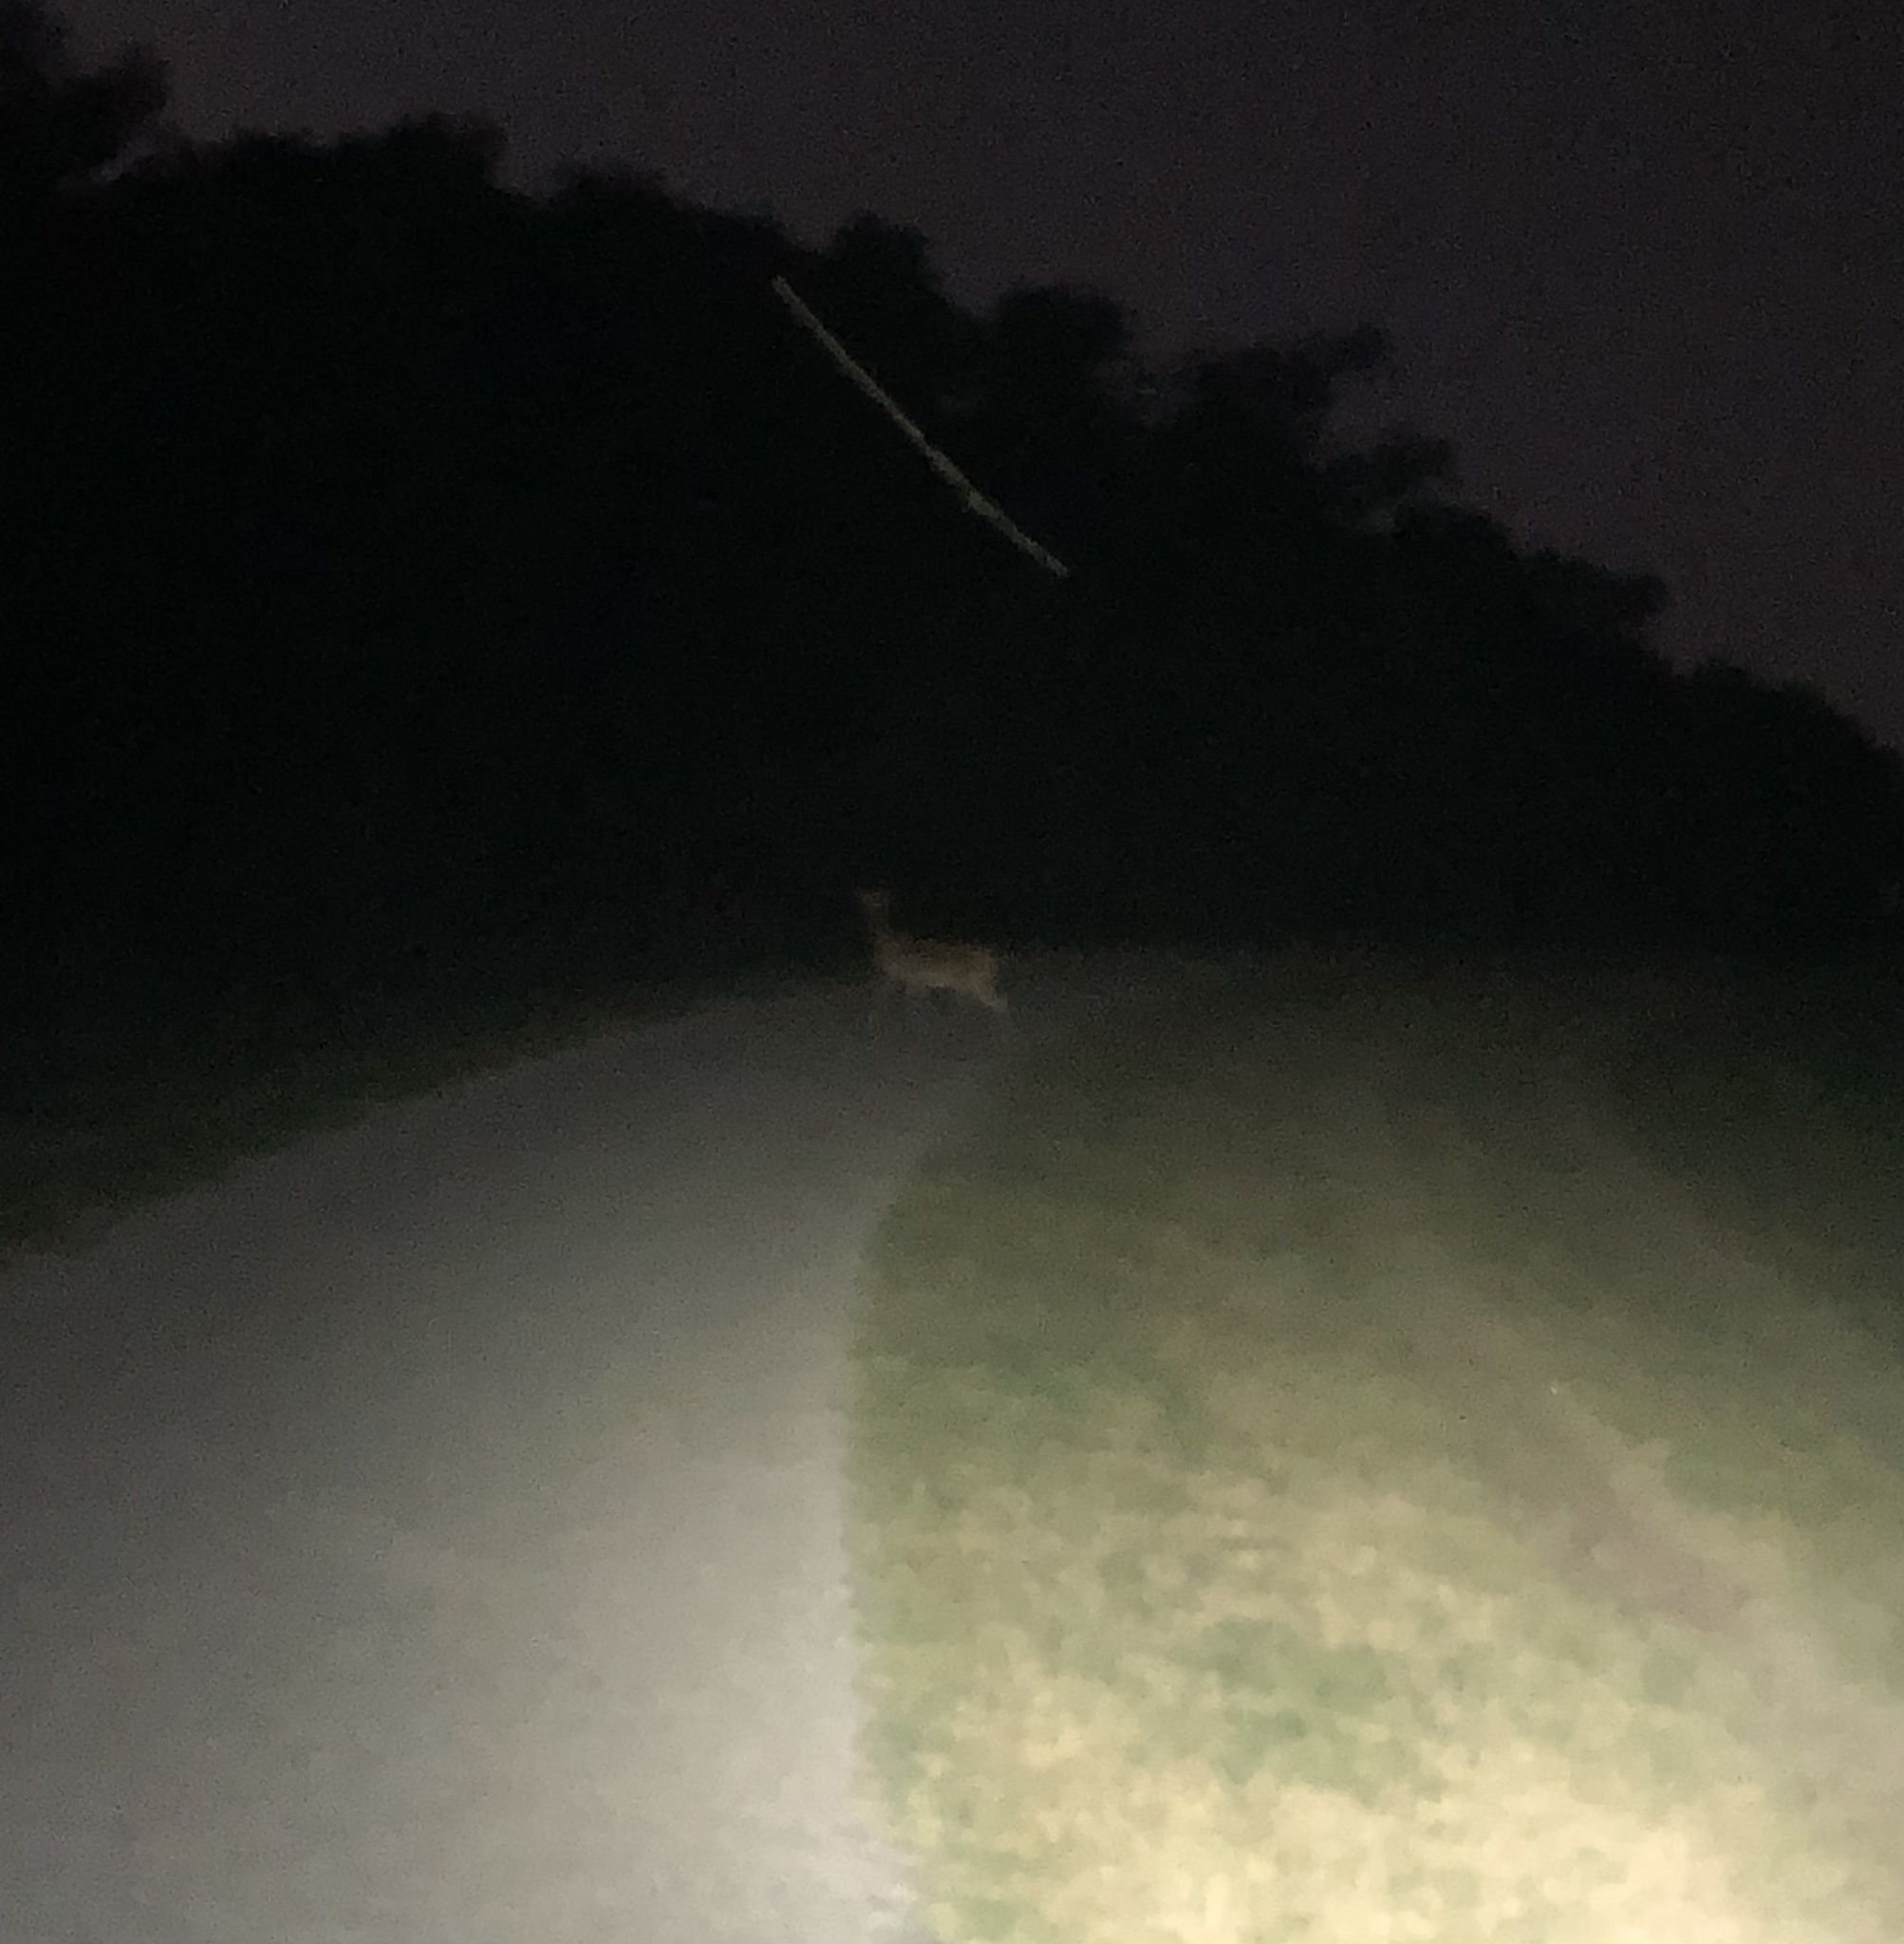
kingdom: Animalia
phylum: Chordata
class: Mammalia
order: Artiodactyla
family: Cervidae
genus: Odocoileus
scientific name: Odocoileus virginianus
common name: White-tailed deer
